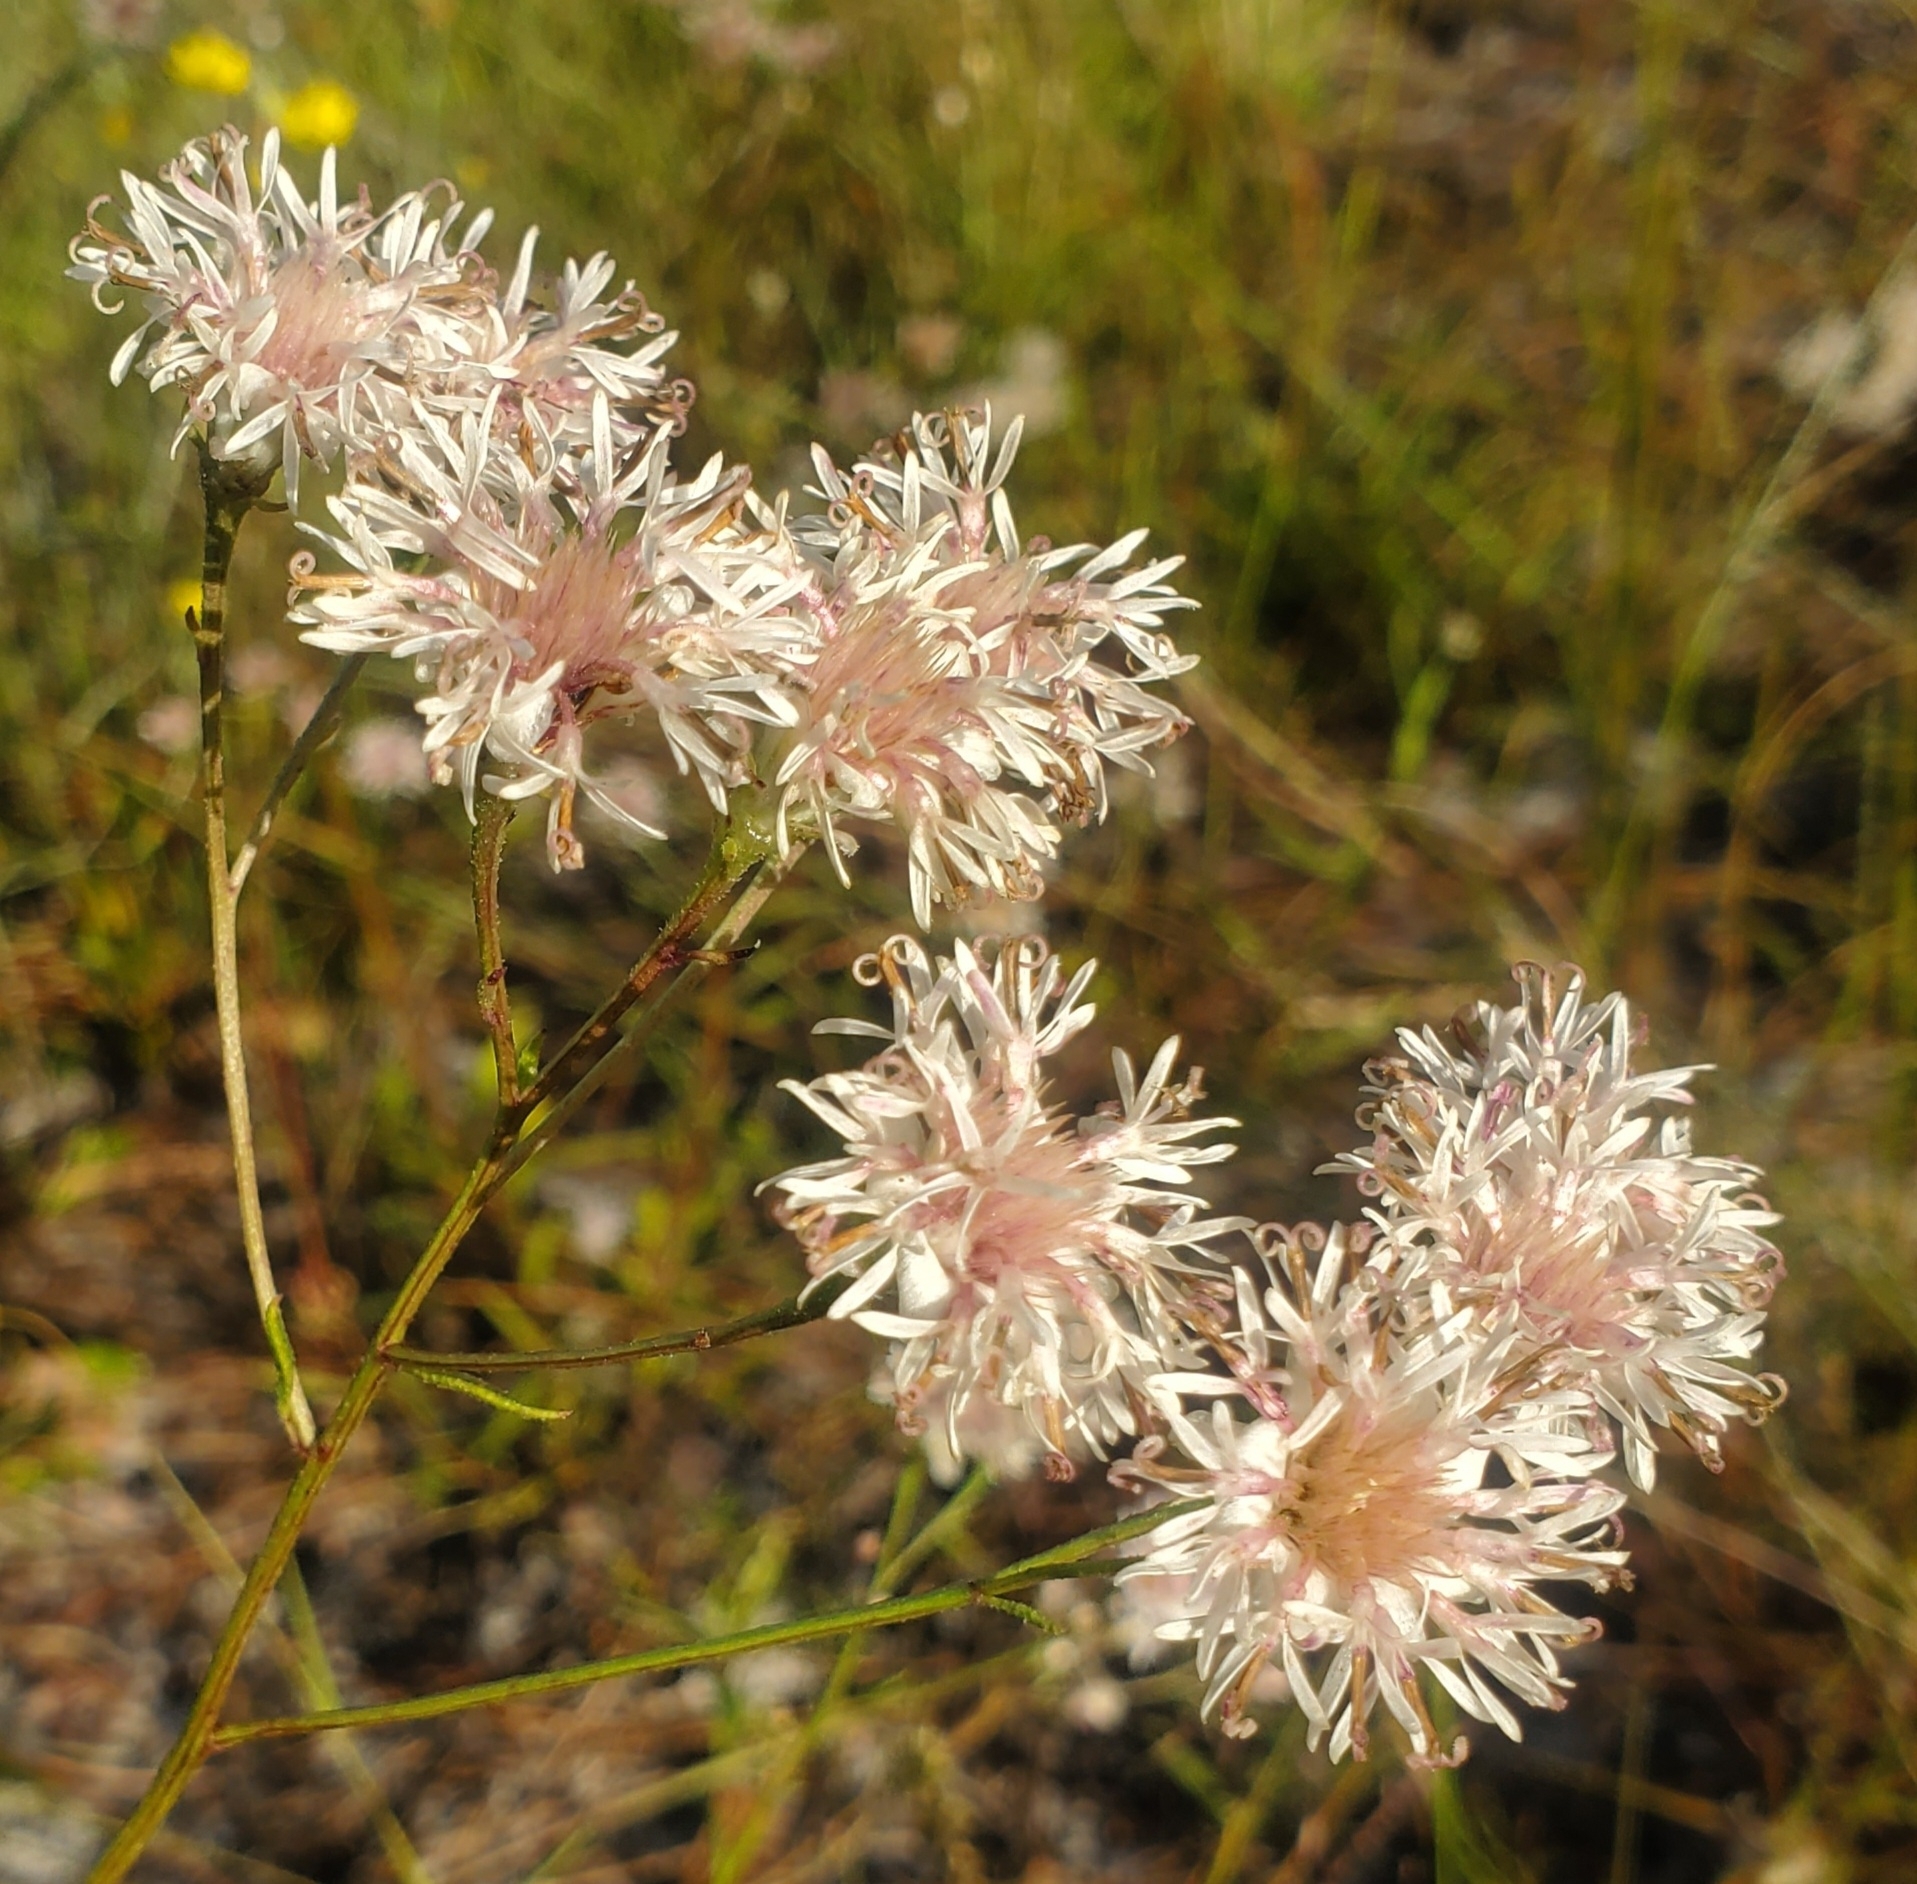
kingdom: Plantae
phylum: Tracheophyta
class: Magnoliopsida
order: Asterales
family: Asteraceae
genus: Palafoxia
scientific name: Palafoxia integrifolia
